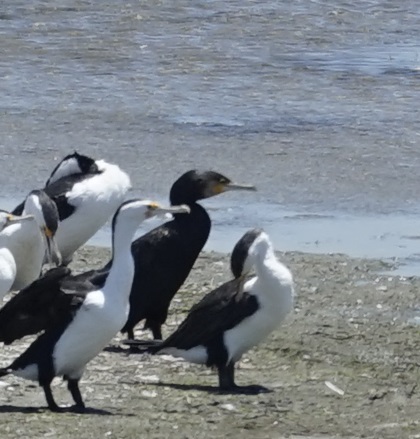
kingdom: Animalia
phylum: Chordata
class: Aves
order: Suliformes
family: Phalacrocoracidae
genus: Phalacrocorax
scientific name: Phalacrocorax carbo
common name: Great cormorant
